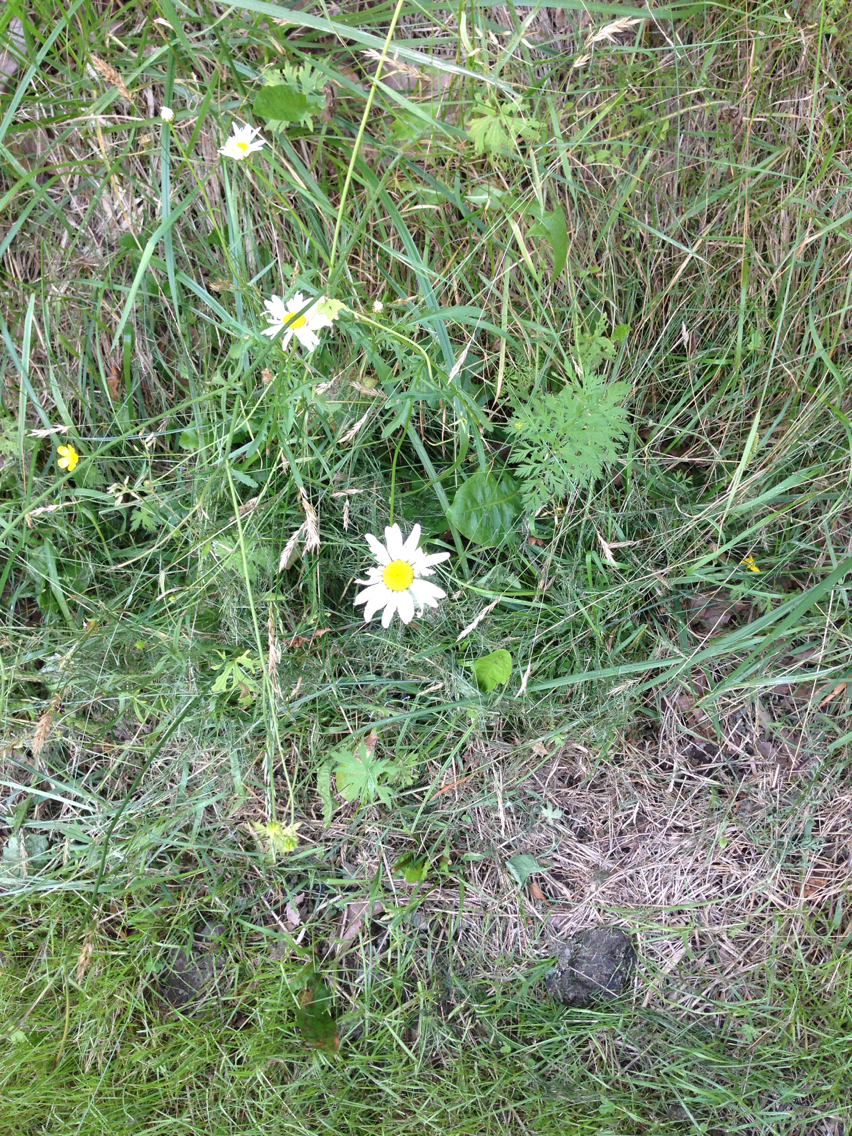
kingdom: Plantae
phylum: Tracheophyta
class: Magnoliopsida
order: Asterales
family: Asteraceae
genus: Leucanthemum
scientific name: Leucanthemum vulgare
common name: Oxeye daisy
